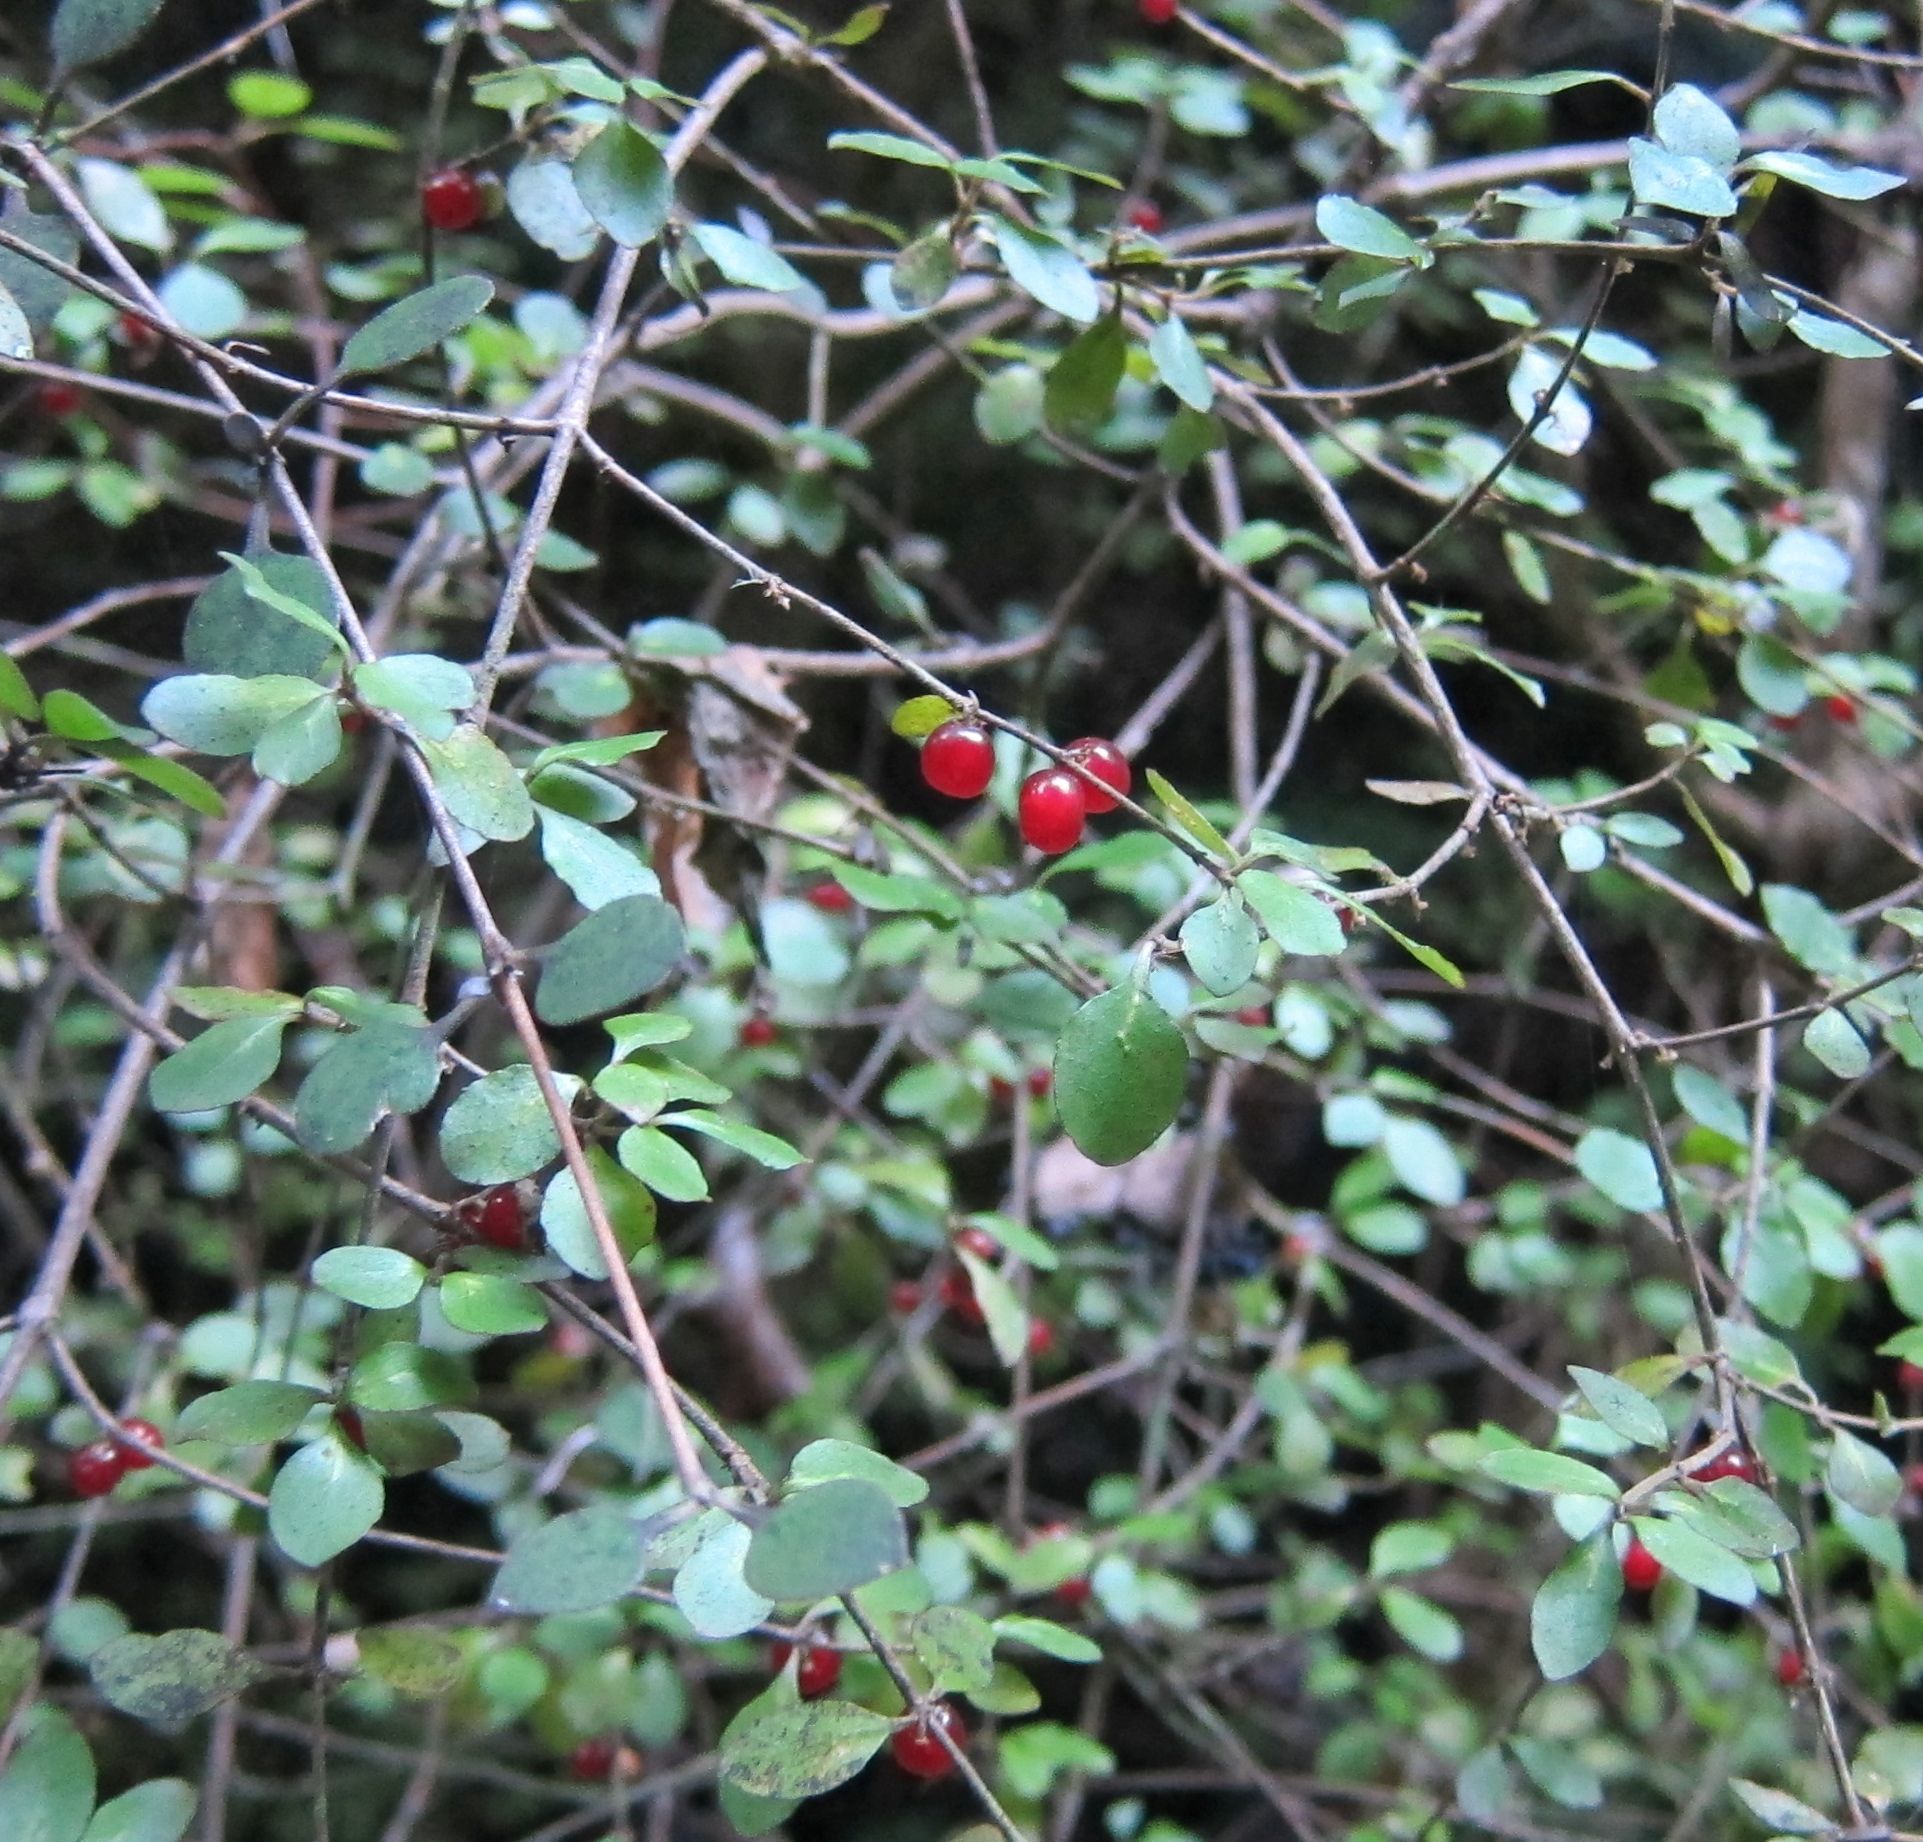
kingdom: Plantae
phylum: Tracheophyta
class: Magnoliopsida
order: Gentianales
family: Rubiaceae
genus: Coprosma
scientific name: Coprosma rhamnoides
